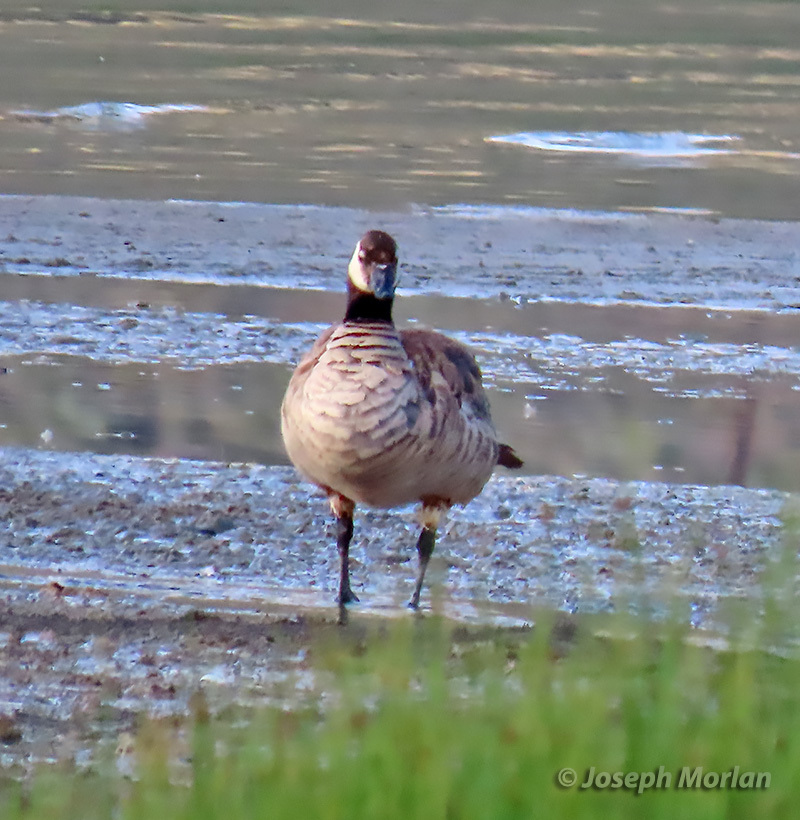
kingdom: Animalia
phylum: Chordata
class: Aves
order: Anseriformes
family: Anatidae
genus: Branta
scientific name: Branta canadensis
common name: Canada goose
